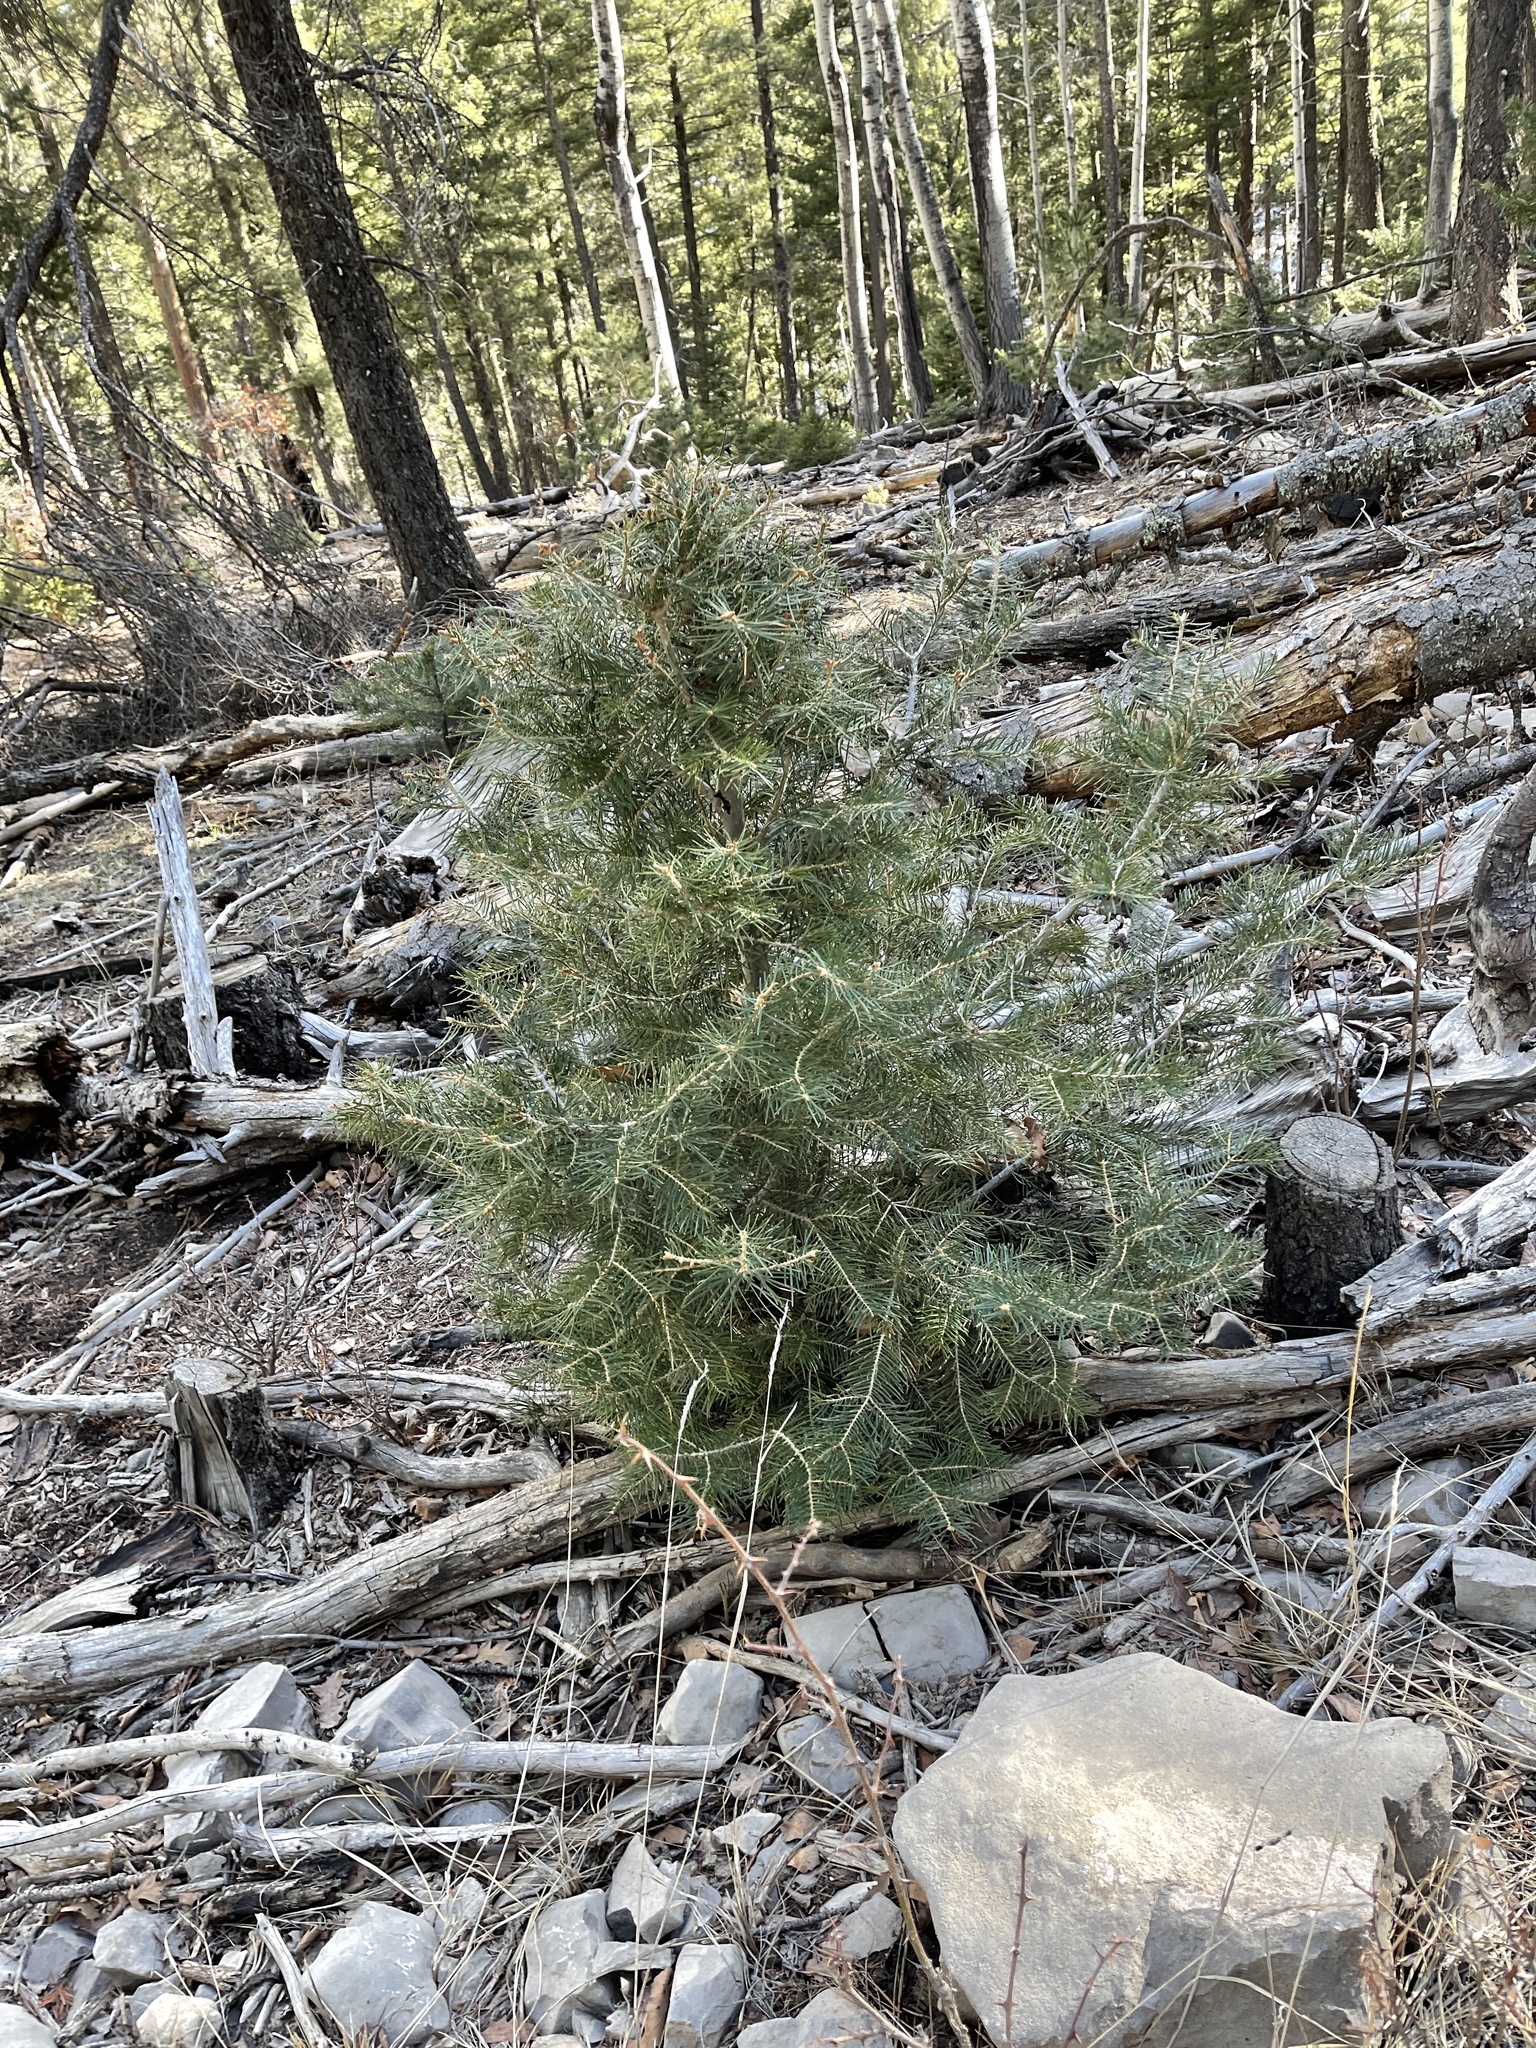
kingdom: Plantae
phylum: Tracheophyta
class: Pinopsida
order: Pinales
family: Pinaceae
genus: Abies
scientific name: Abies concolor
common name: Colorado fir
